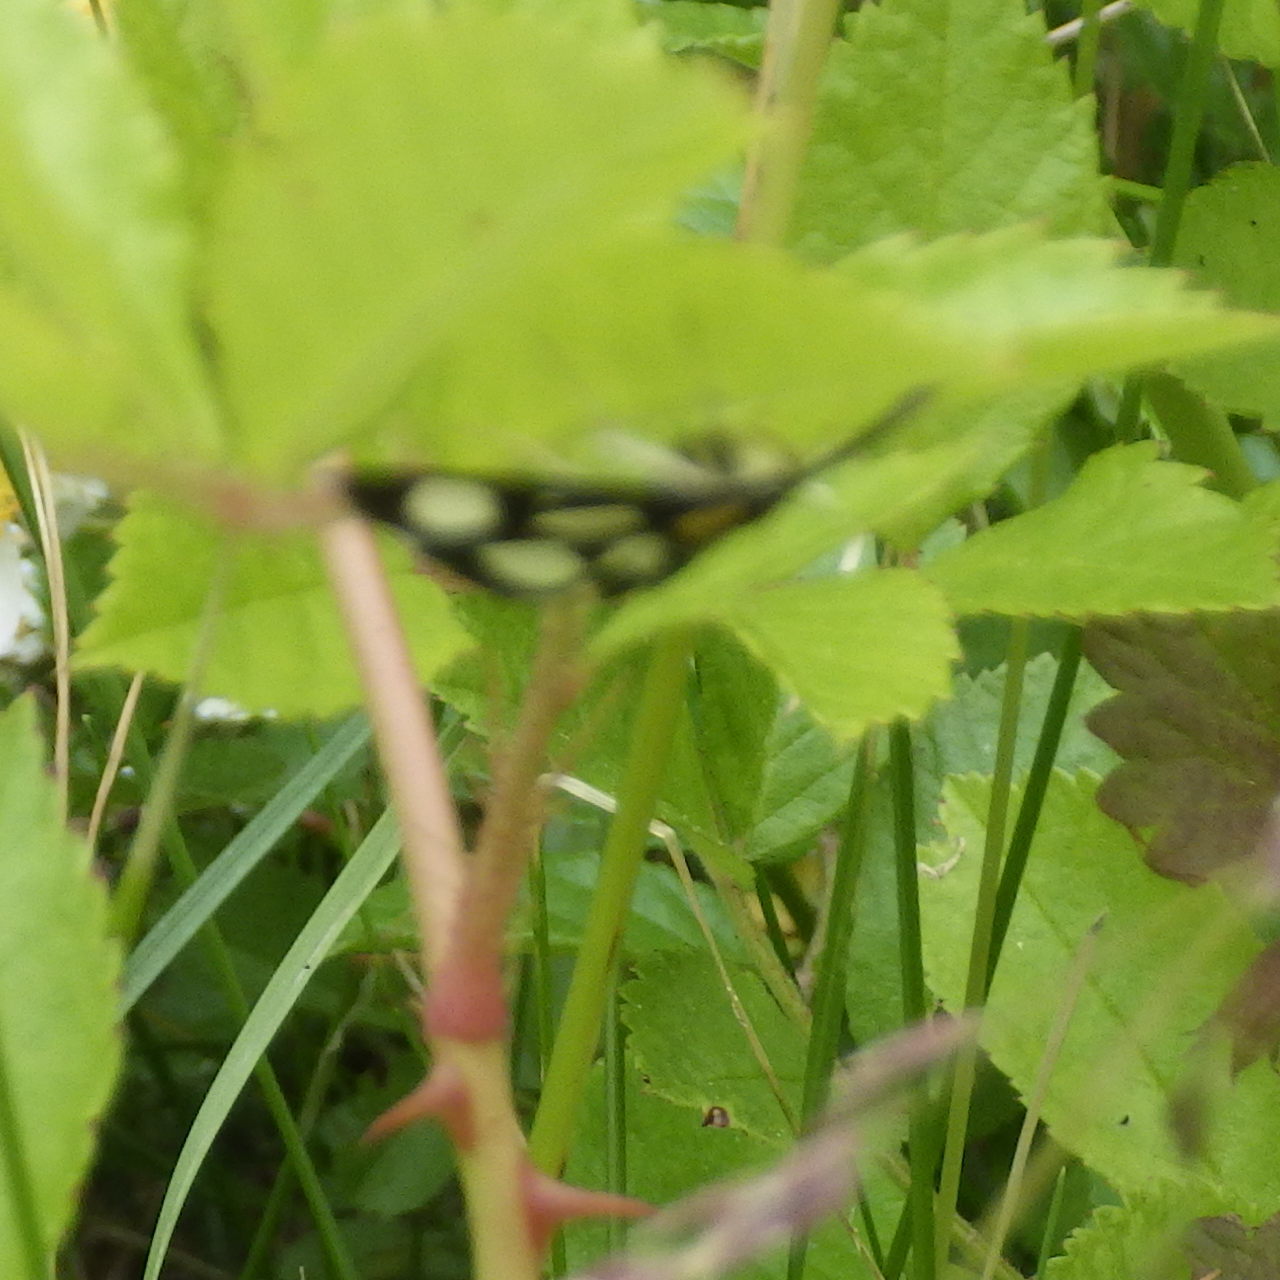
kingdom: Animalia
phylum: Arthropoda
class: Insecta
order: Lepidoptera
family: Crambidae
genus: Anania
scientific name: Anania funebris
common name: White-spotted sable moth
